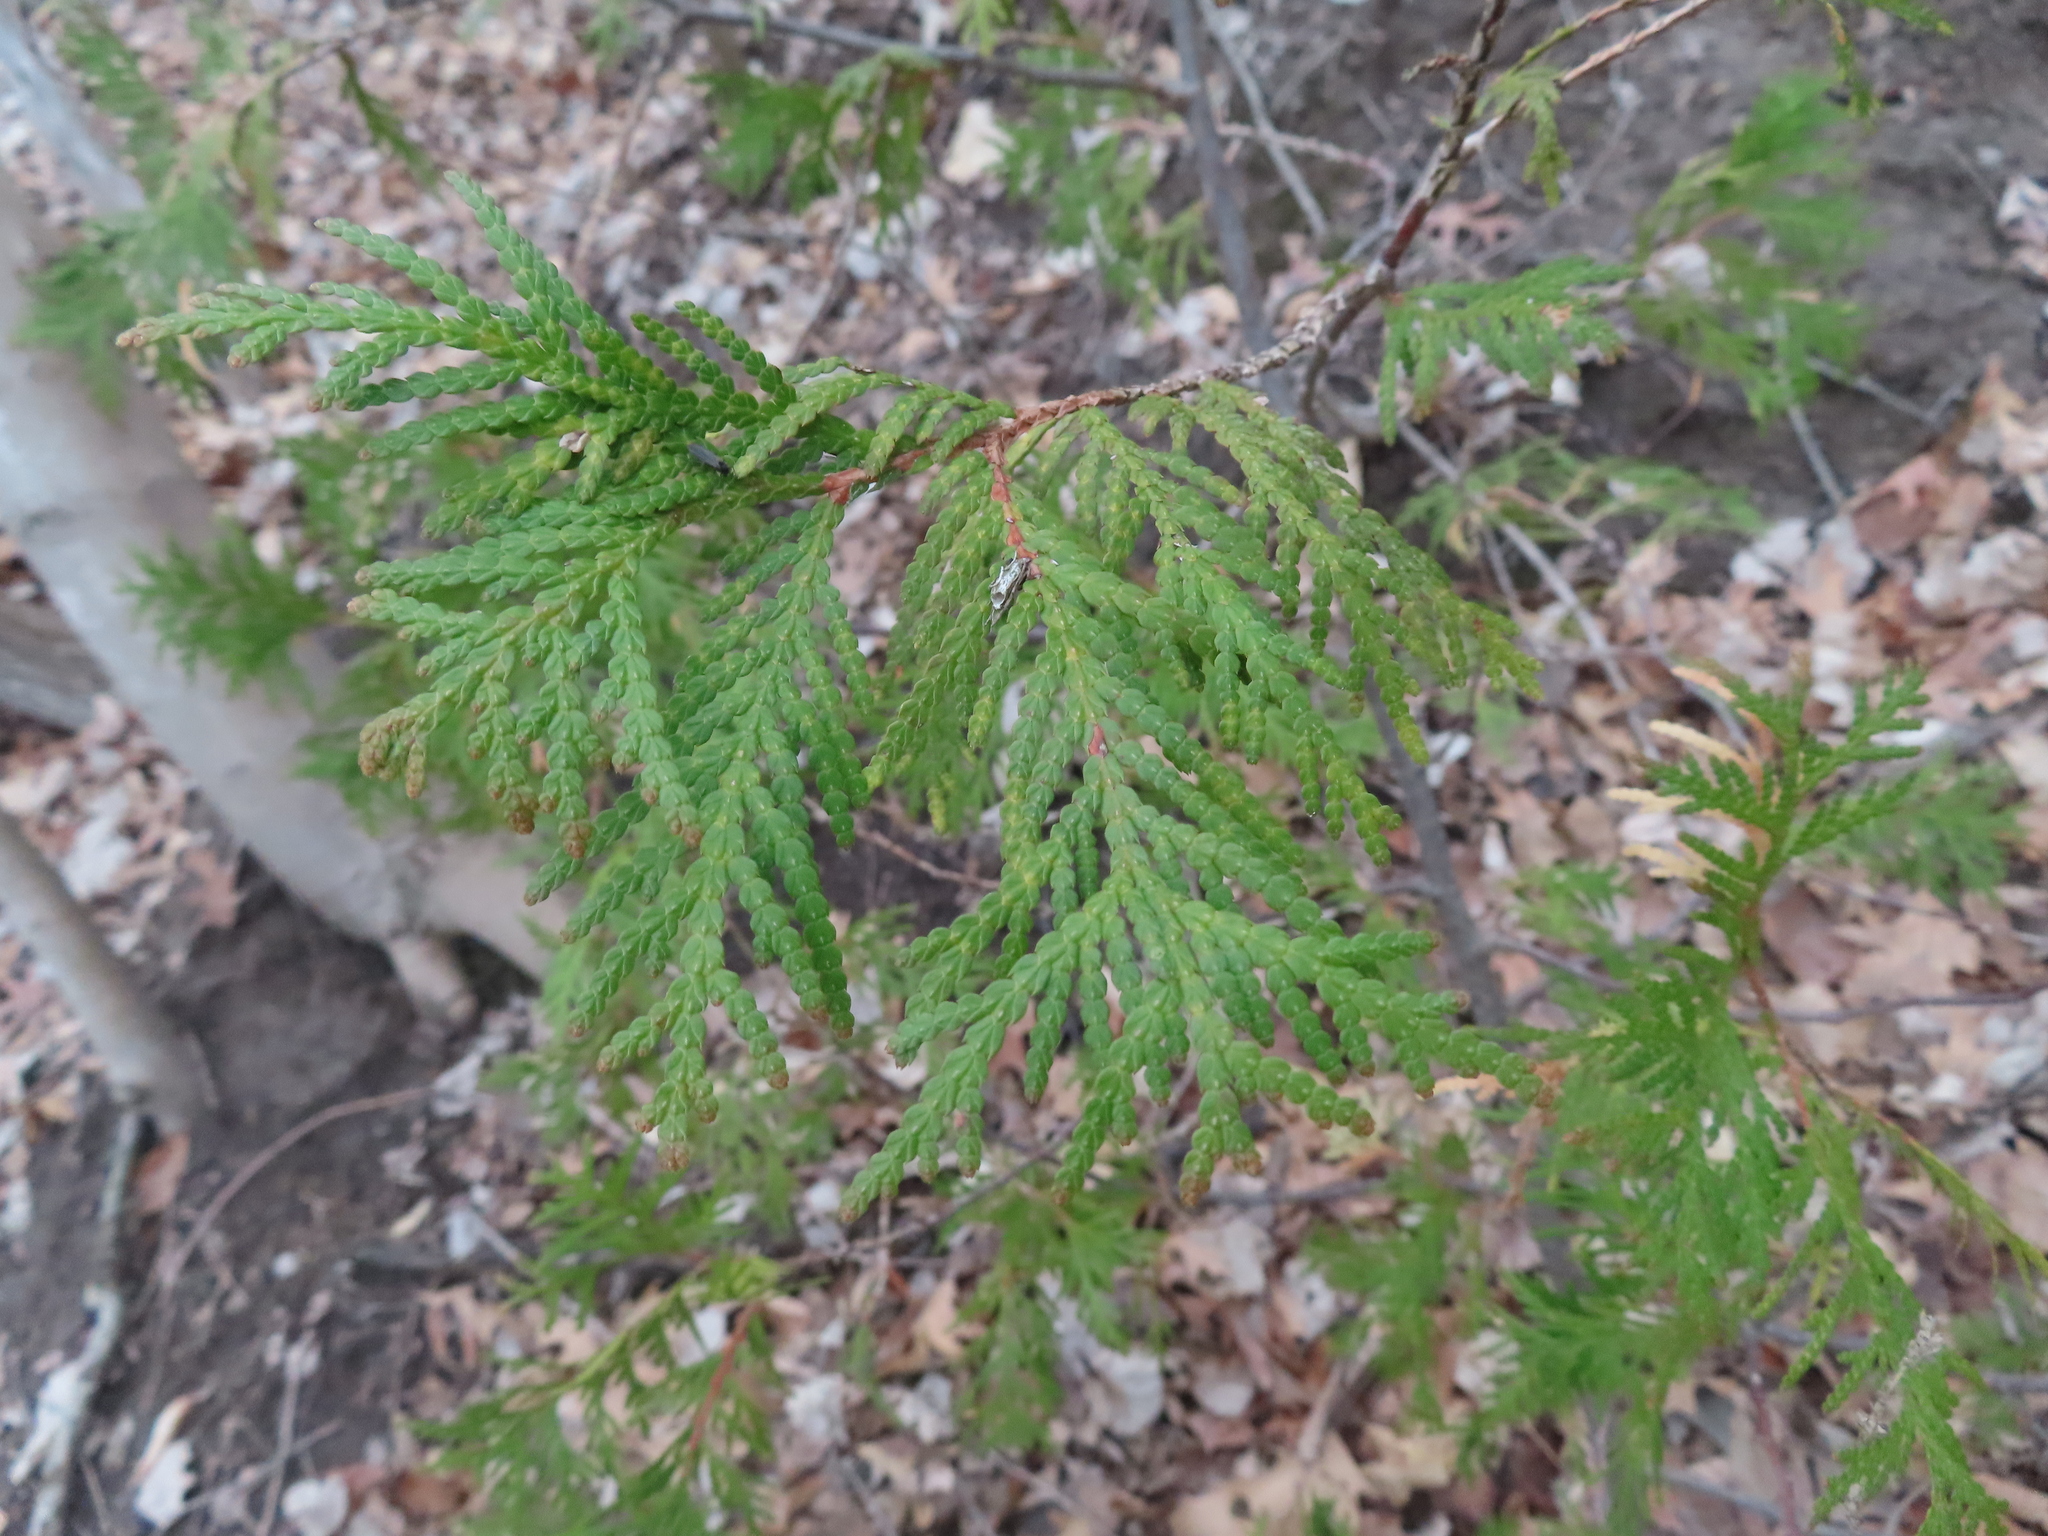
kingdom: Plantae
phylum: Tracheophyta
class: Pinopsida
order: Pinales
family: Cupressaceae
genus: Thuja
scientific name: Thuja occidentalis
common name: Northern white-cedar
